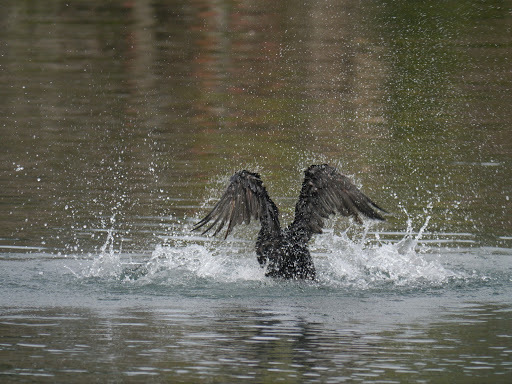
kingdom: Animalia
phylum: Chordata
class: Aves
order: Suliformes
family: Phalacrocoracidae
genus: Phalacrocorax
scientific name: Phalacrocorax auritus
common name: Double-crested cormorant
